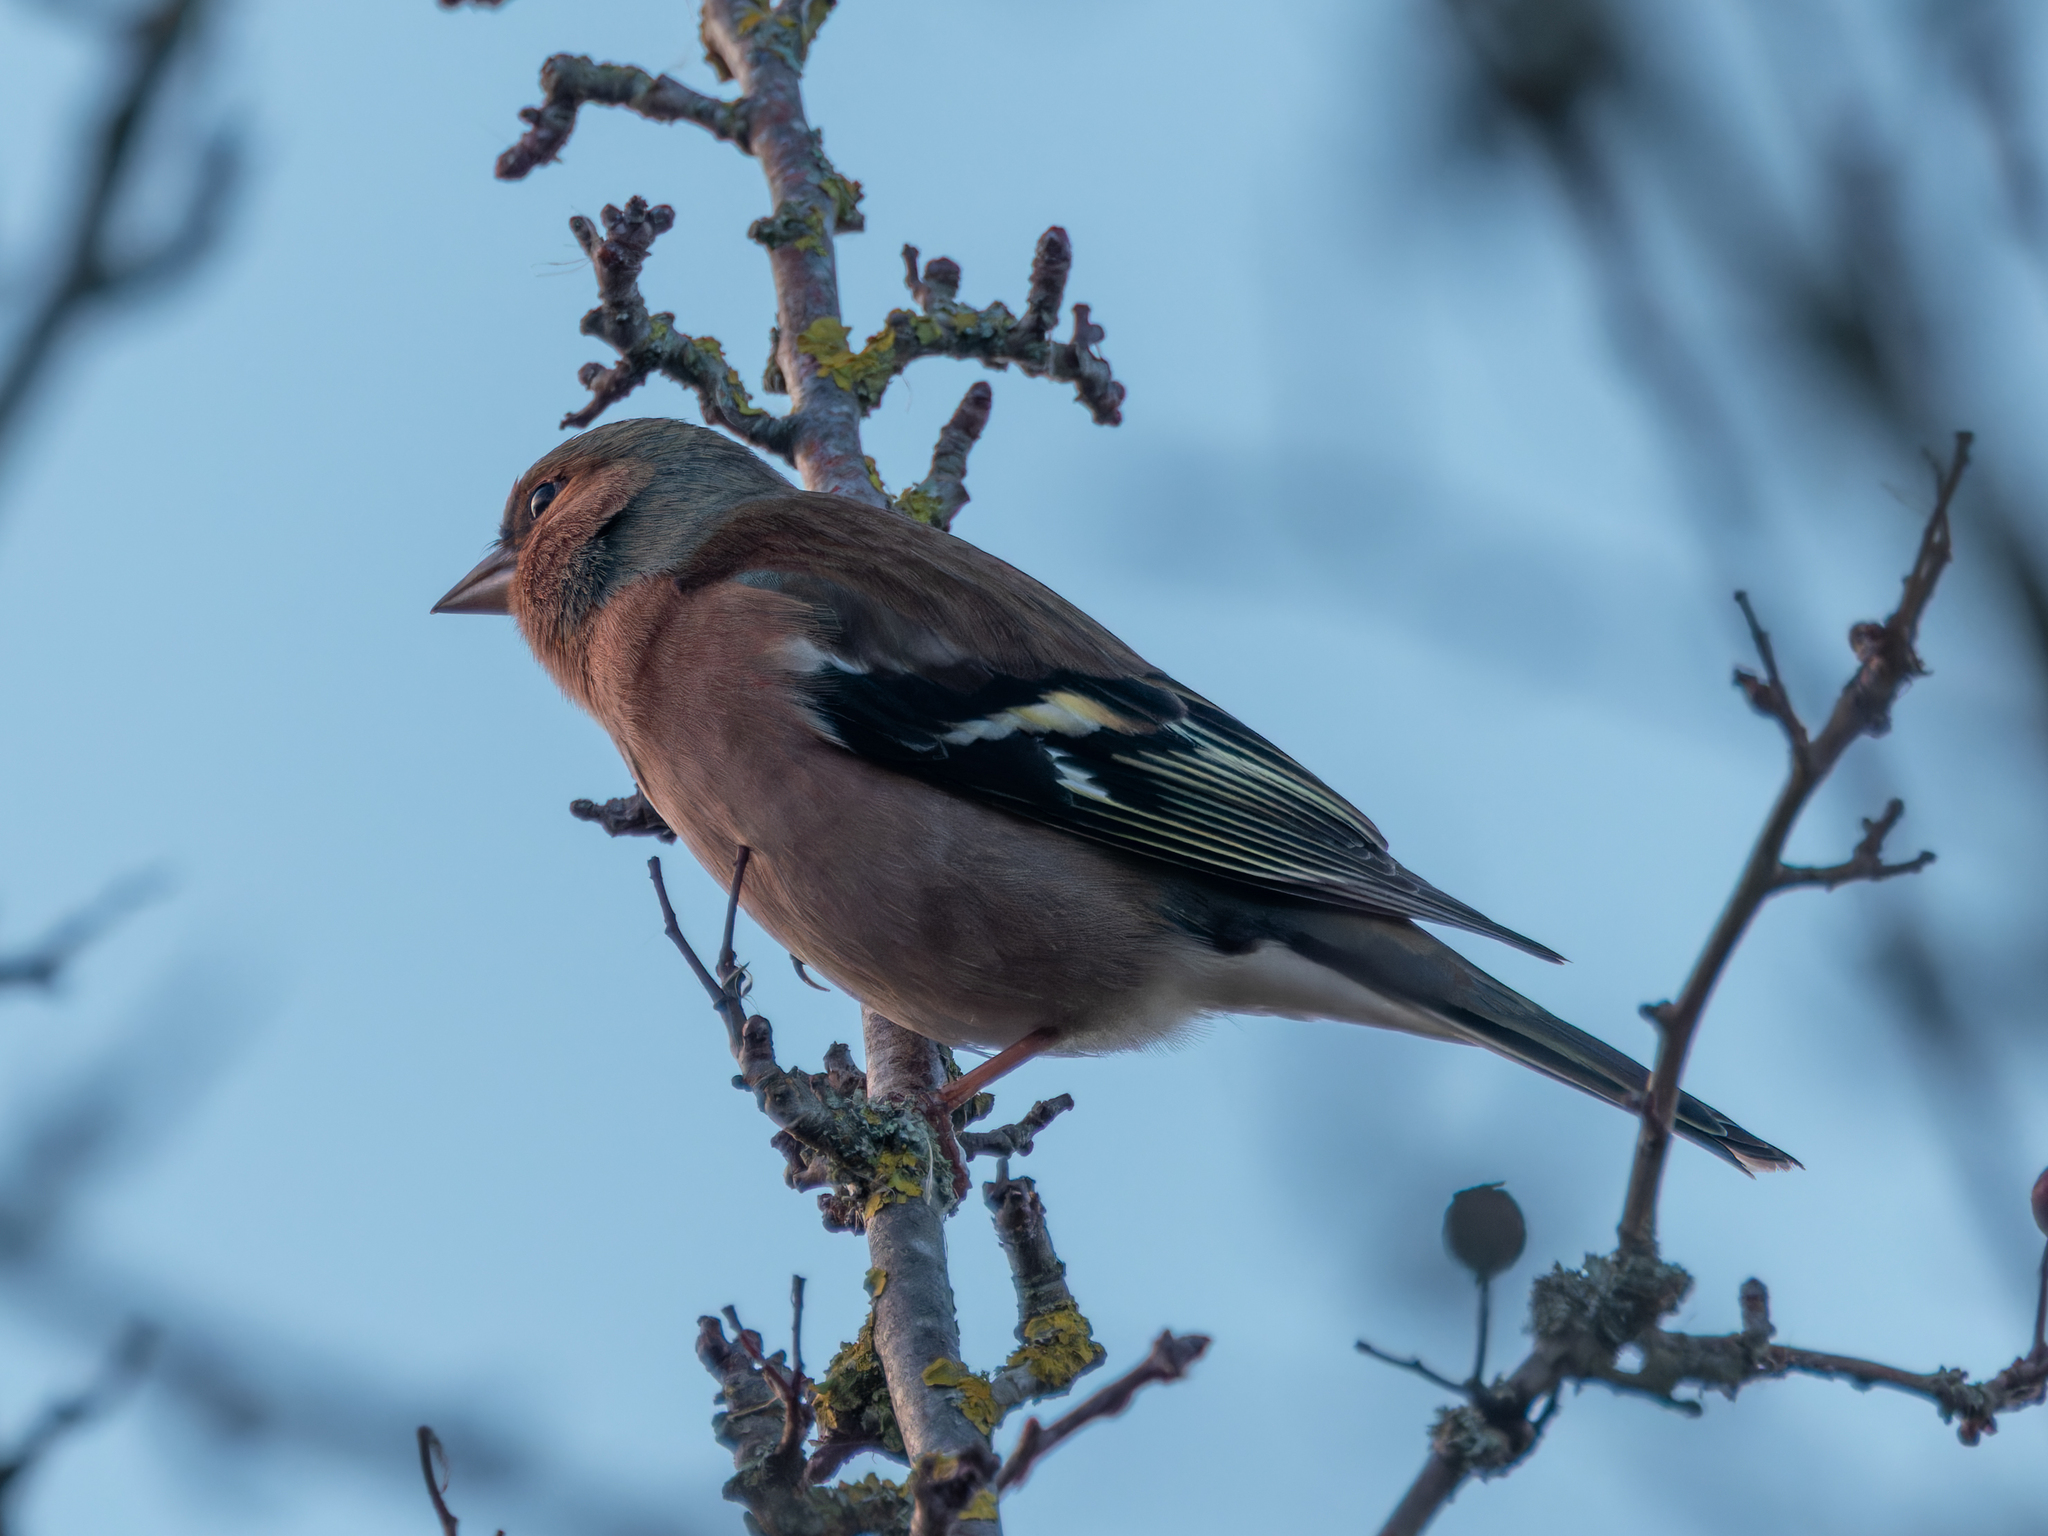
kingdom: Animalia
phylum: Chordata
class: Aves
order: Passeriformes
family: Fringillidae
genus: Fringilla
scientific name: Fringilla coelebs
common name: Common chaffinch
